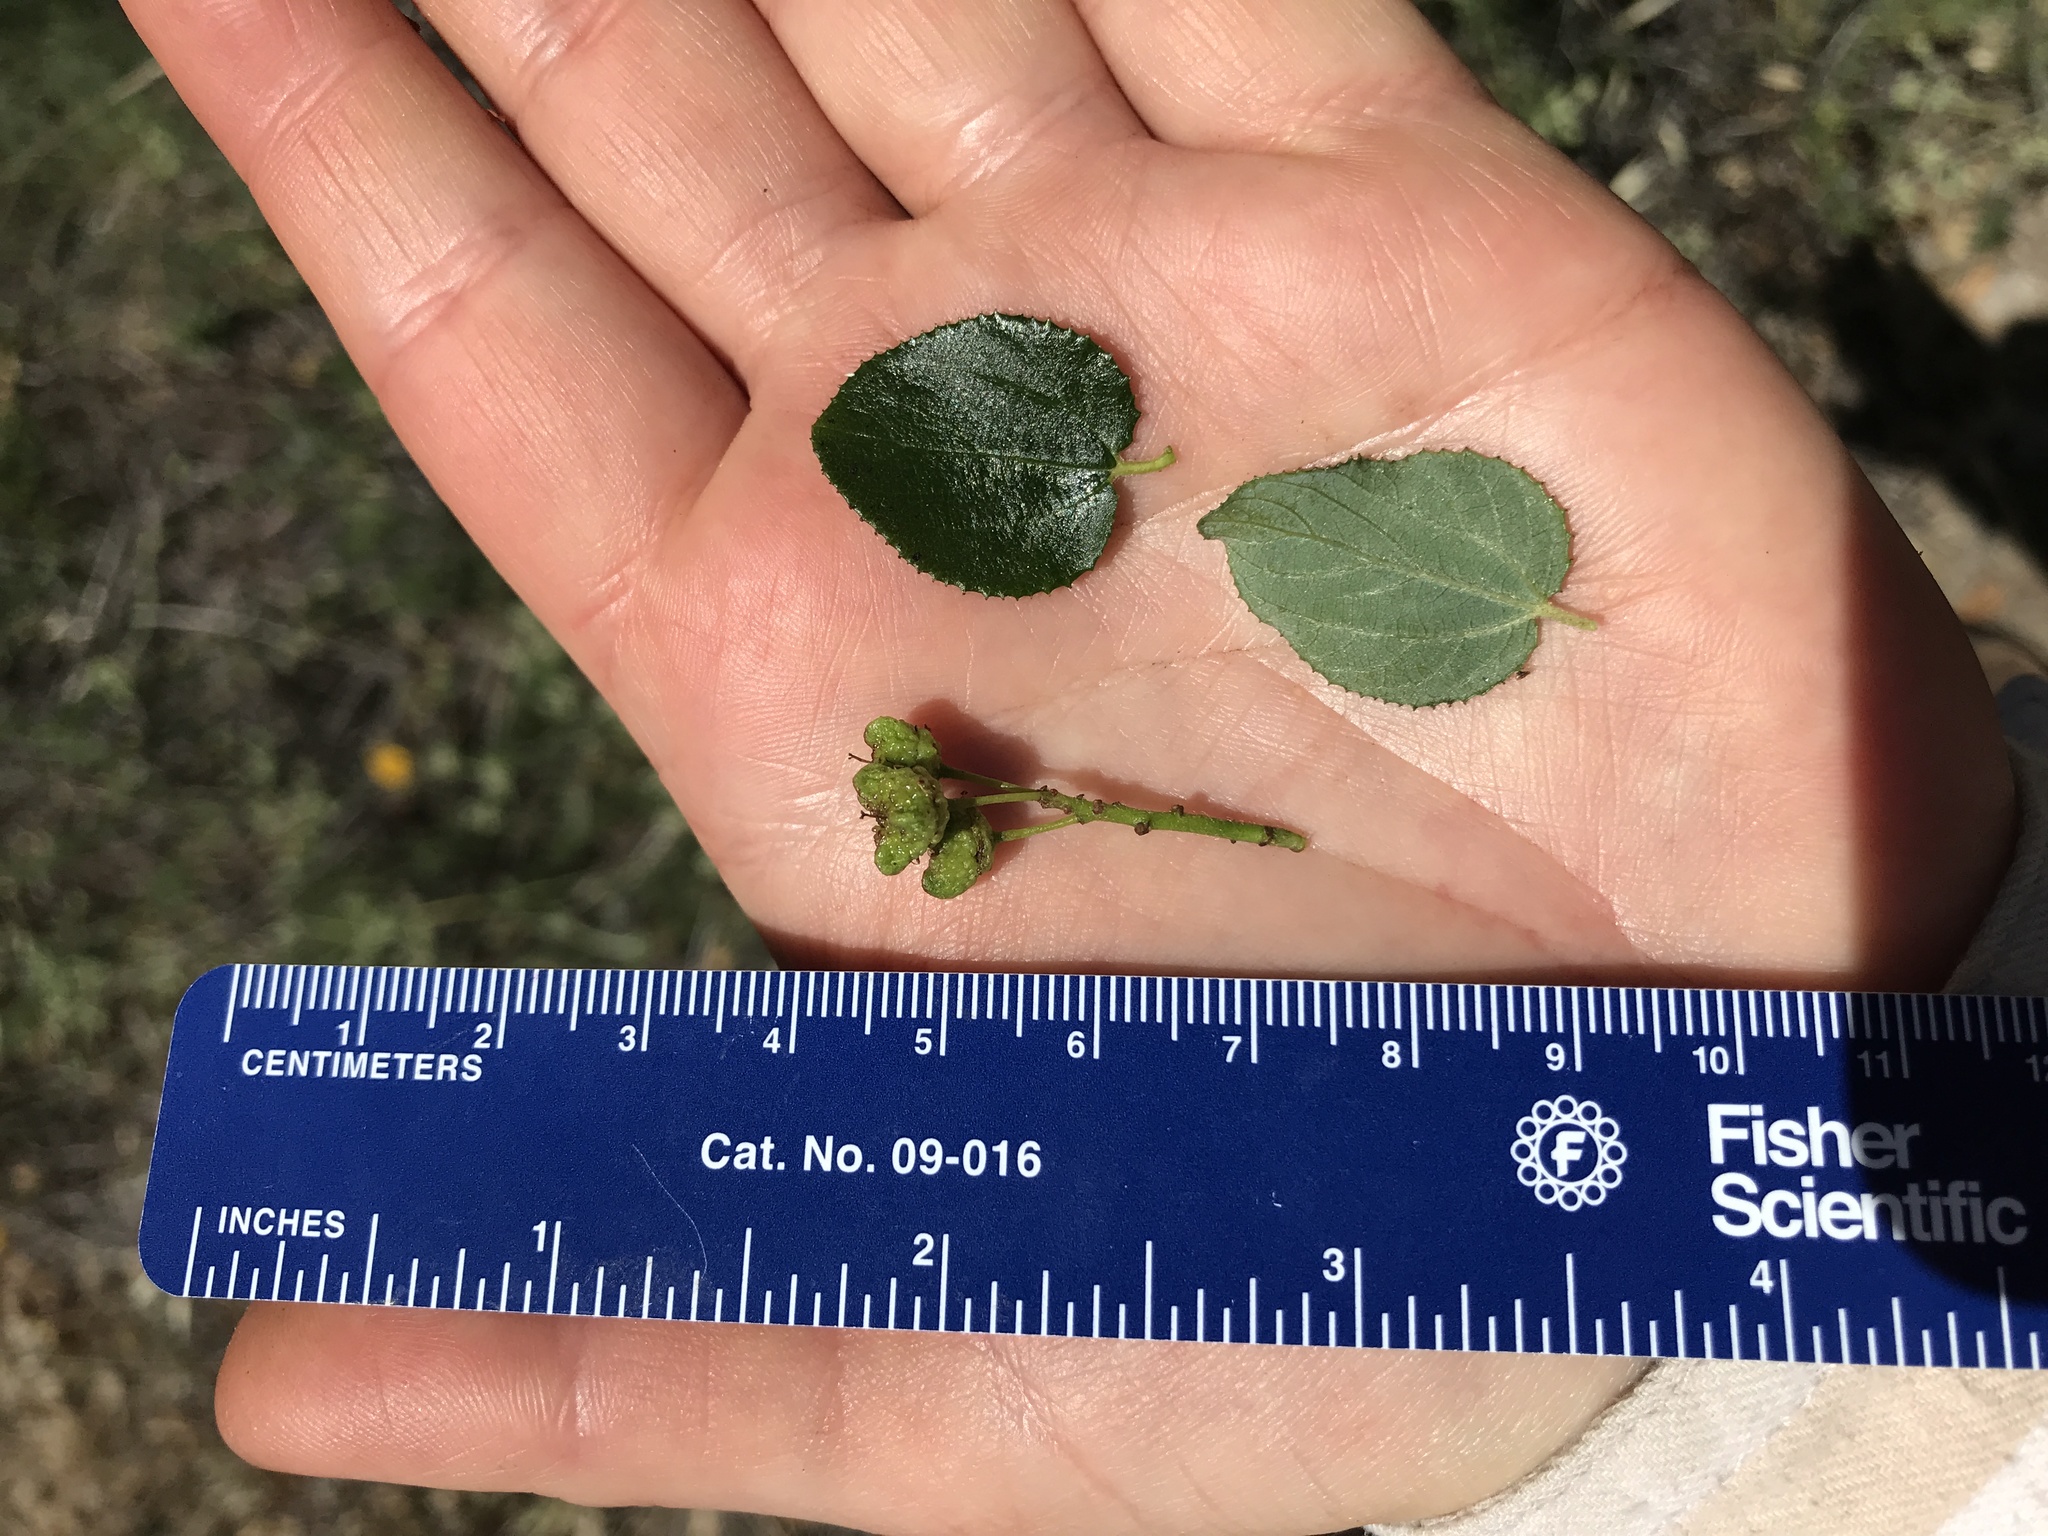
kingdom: Plantae
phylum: Tracheophyta
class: Magnoliopsida
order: Rosales
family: Rhamnaceae
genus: Ceanothus
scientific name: Ceanothus oliganthus
